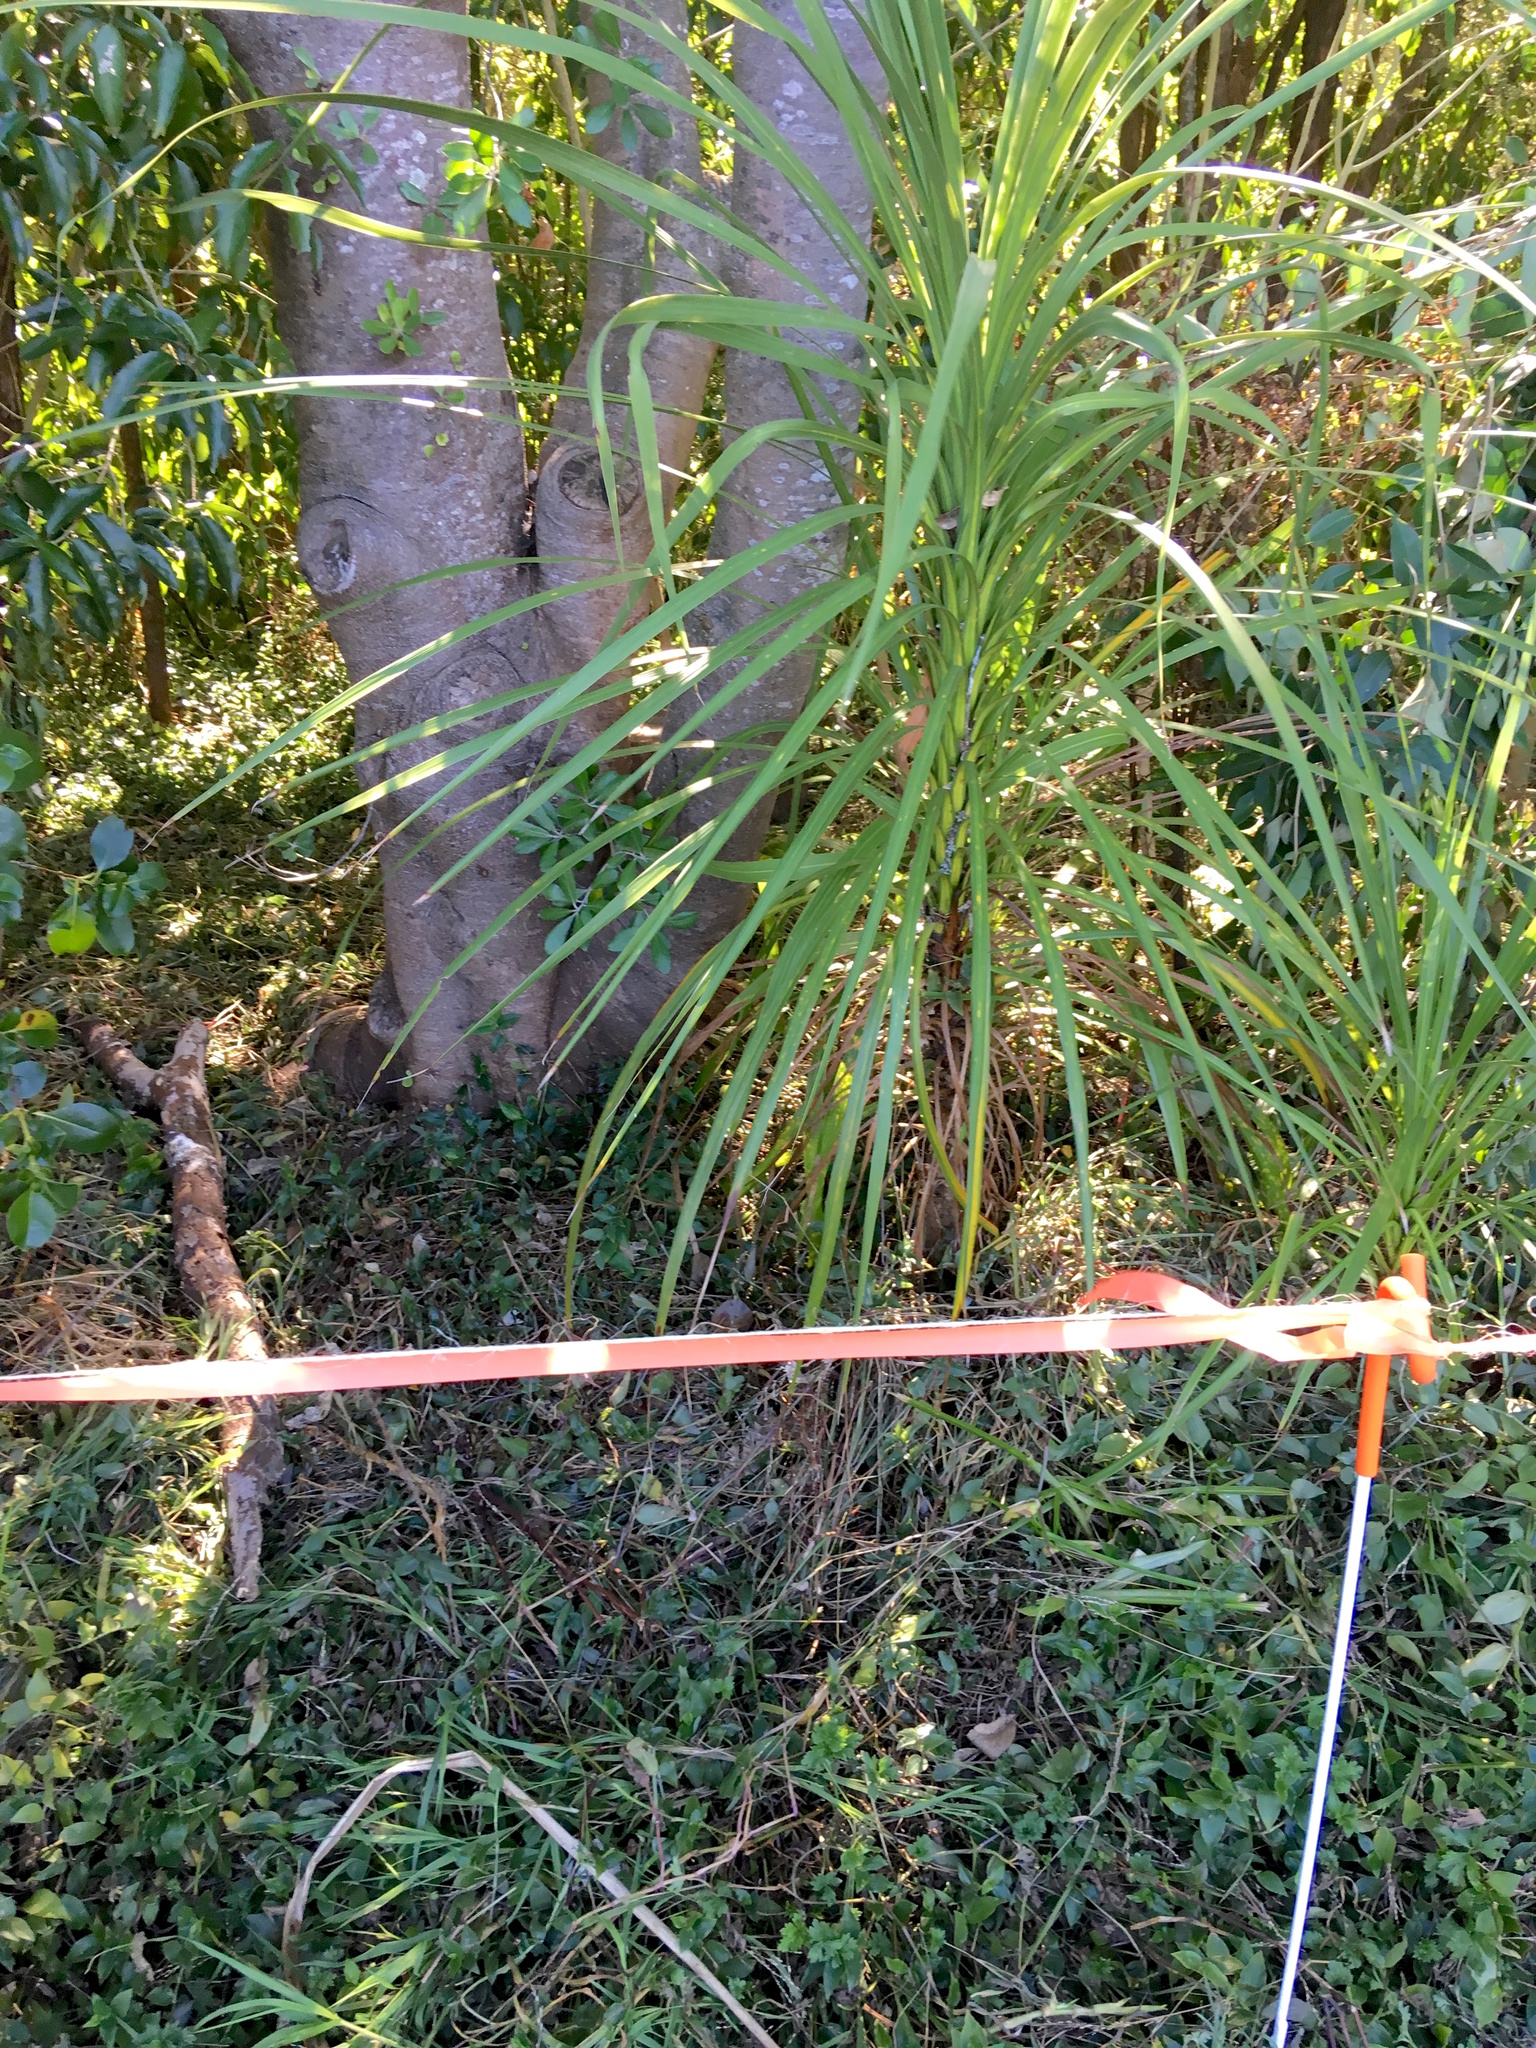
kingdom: Plantae
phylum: Tracheophyta
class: Liliopsida
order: Asparagales
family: Asparagaceae
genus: Cordyline
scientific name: Cordyline australis
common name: Cabbage-palm
